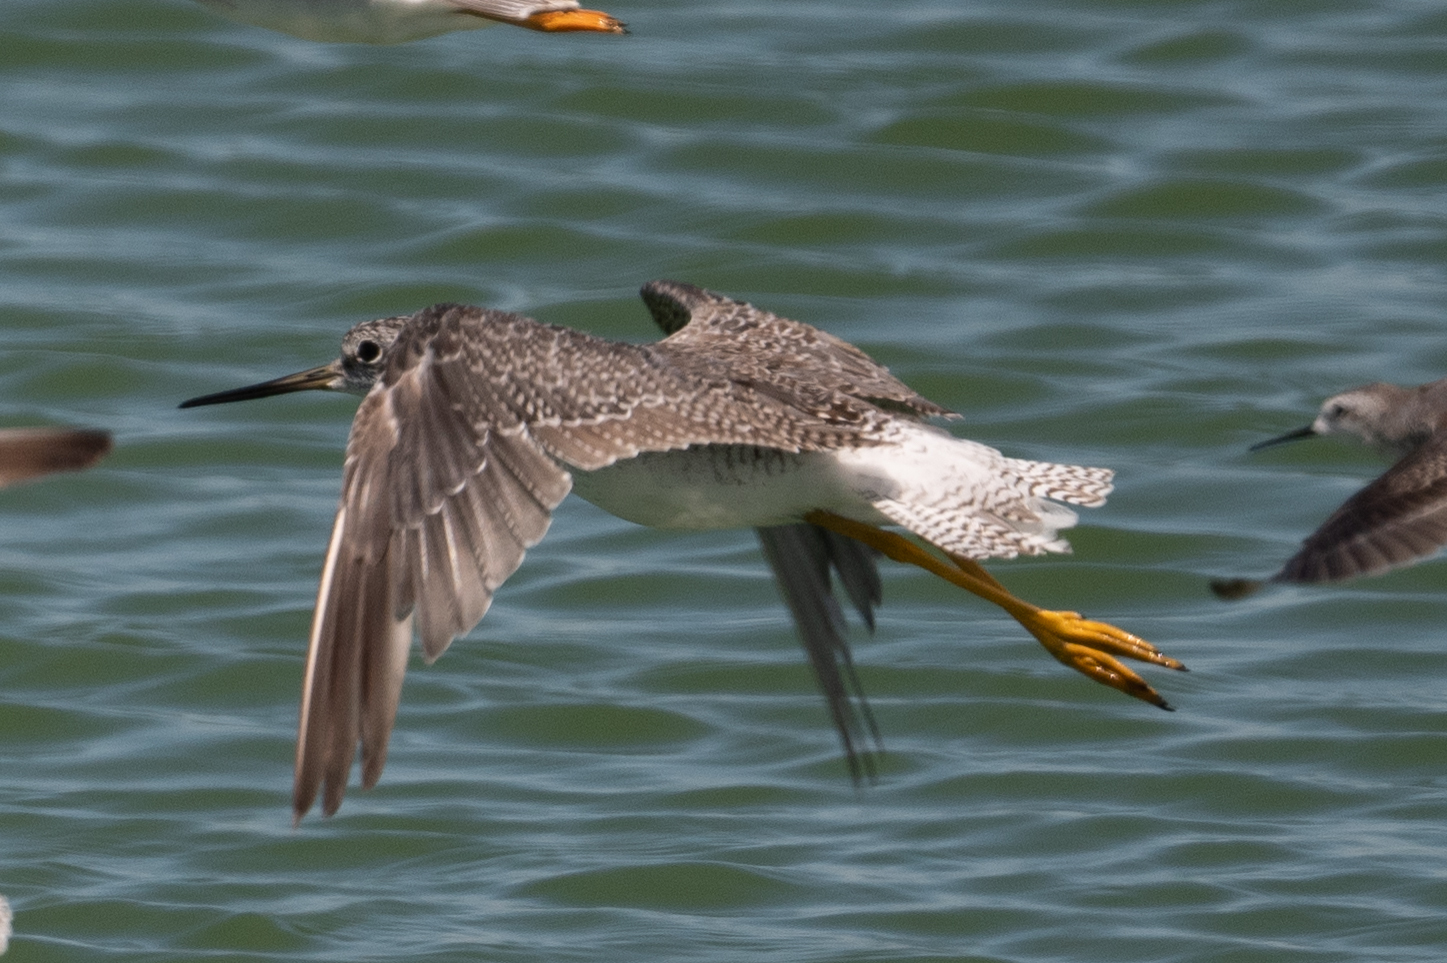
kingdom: Animalia
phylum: Chordata
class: Aves
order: Charadriiformes
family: Scolopacidae
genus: Tringa
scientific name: Tringa melanoleuca
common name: Greater yellowlegs
